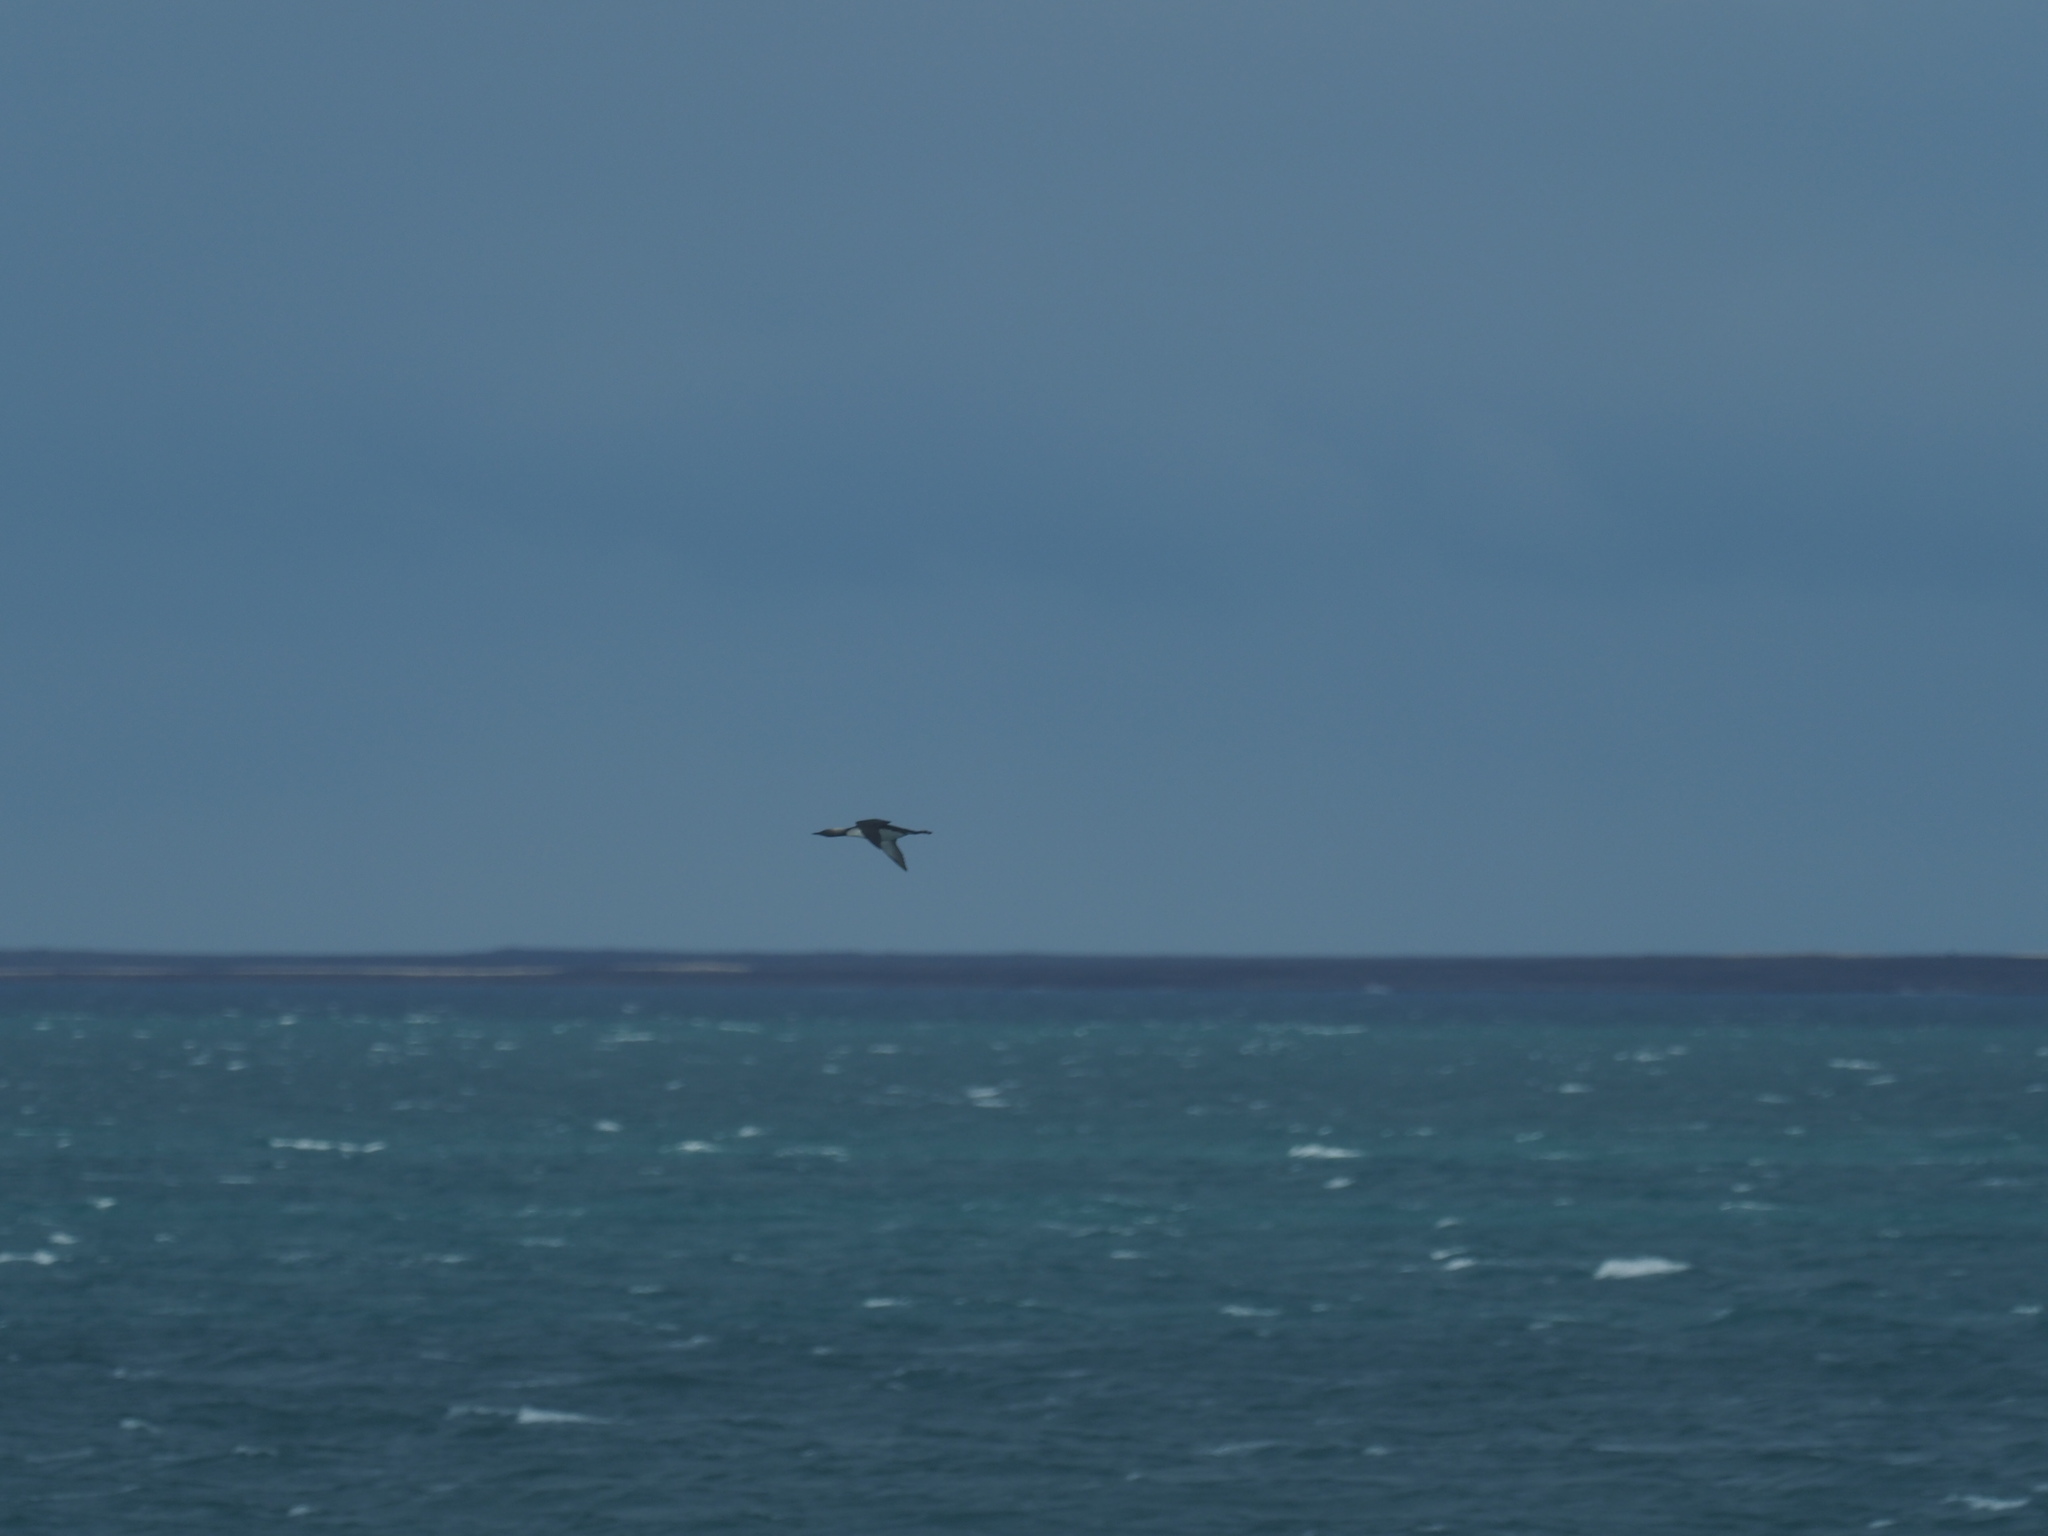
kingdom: Animalia
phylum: Chordata
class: Aves
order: Gaviiformes
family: Gaviidae
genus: Gavia
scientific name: Gavia pacifica
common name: Pacific loon
